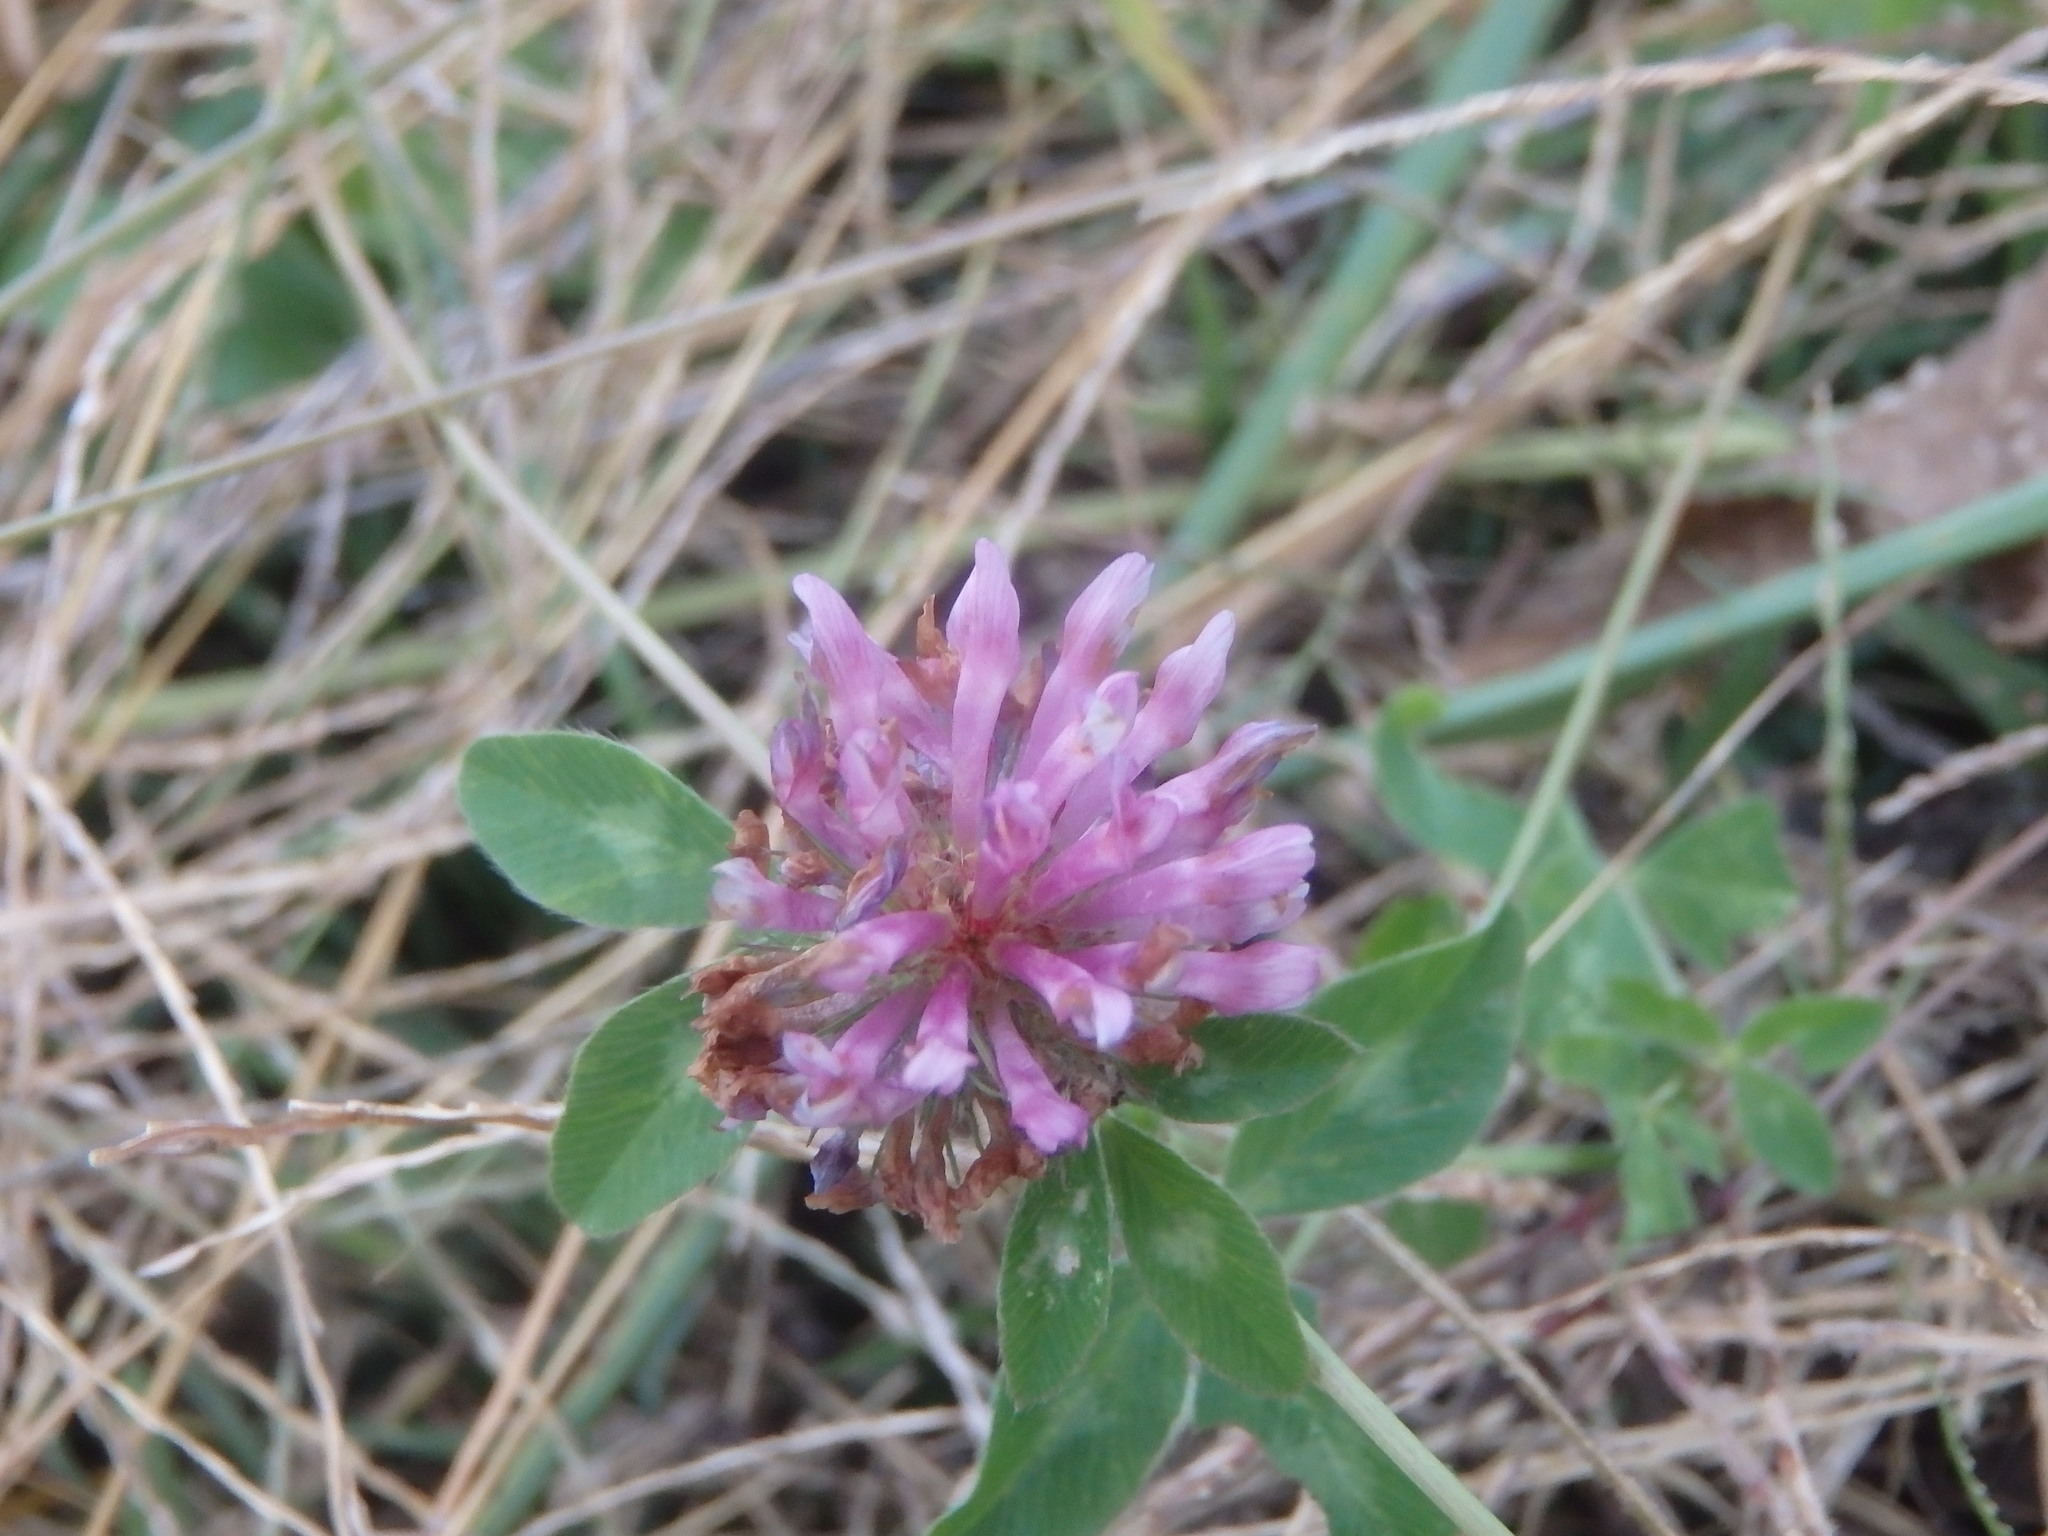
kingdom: Plantae
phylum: Tracheophyta
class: Magnoliopsida
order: Fabales
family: Fabaceae
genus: Trifolium
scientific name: Trifolium pratense
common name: Red clover
